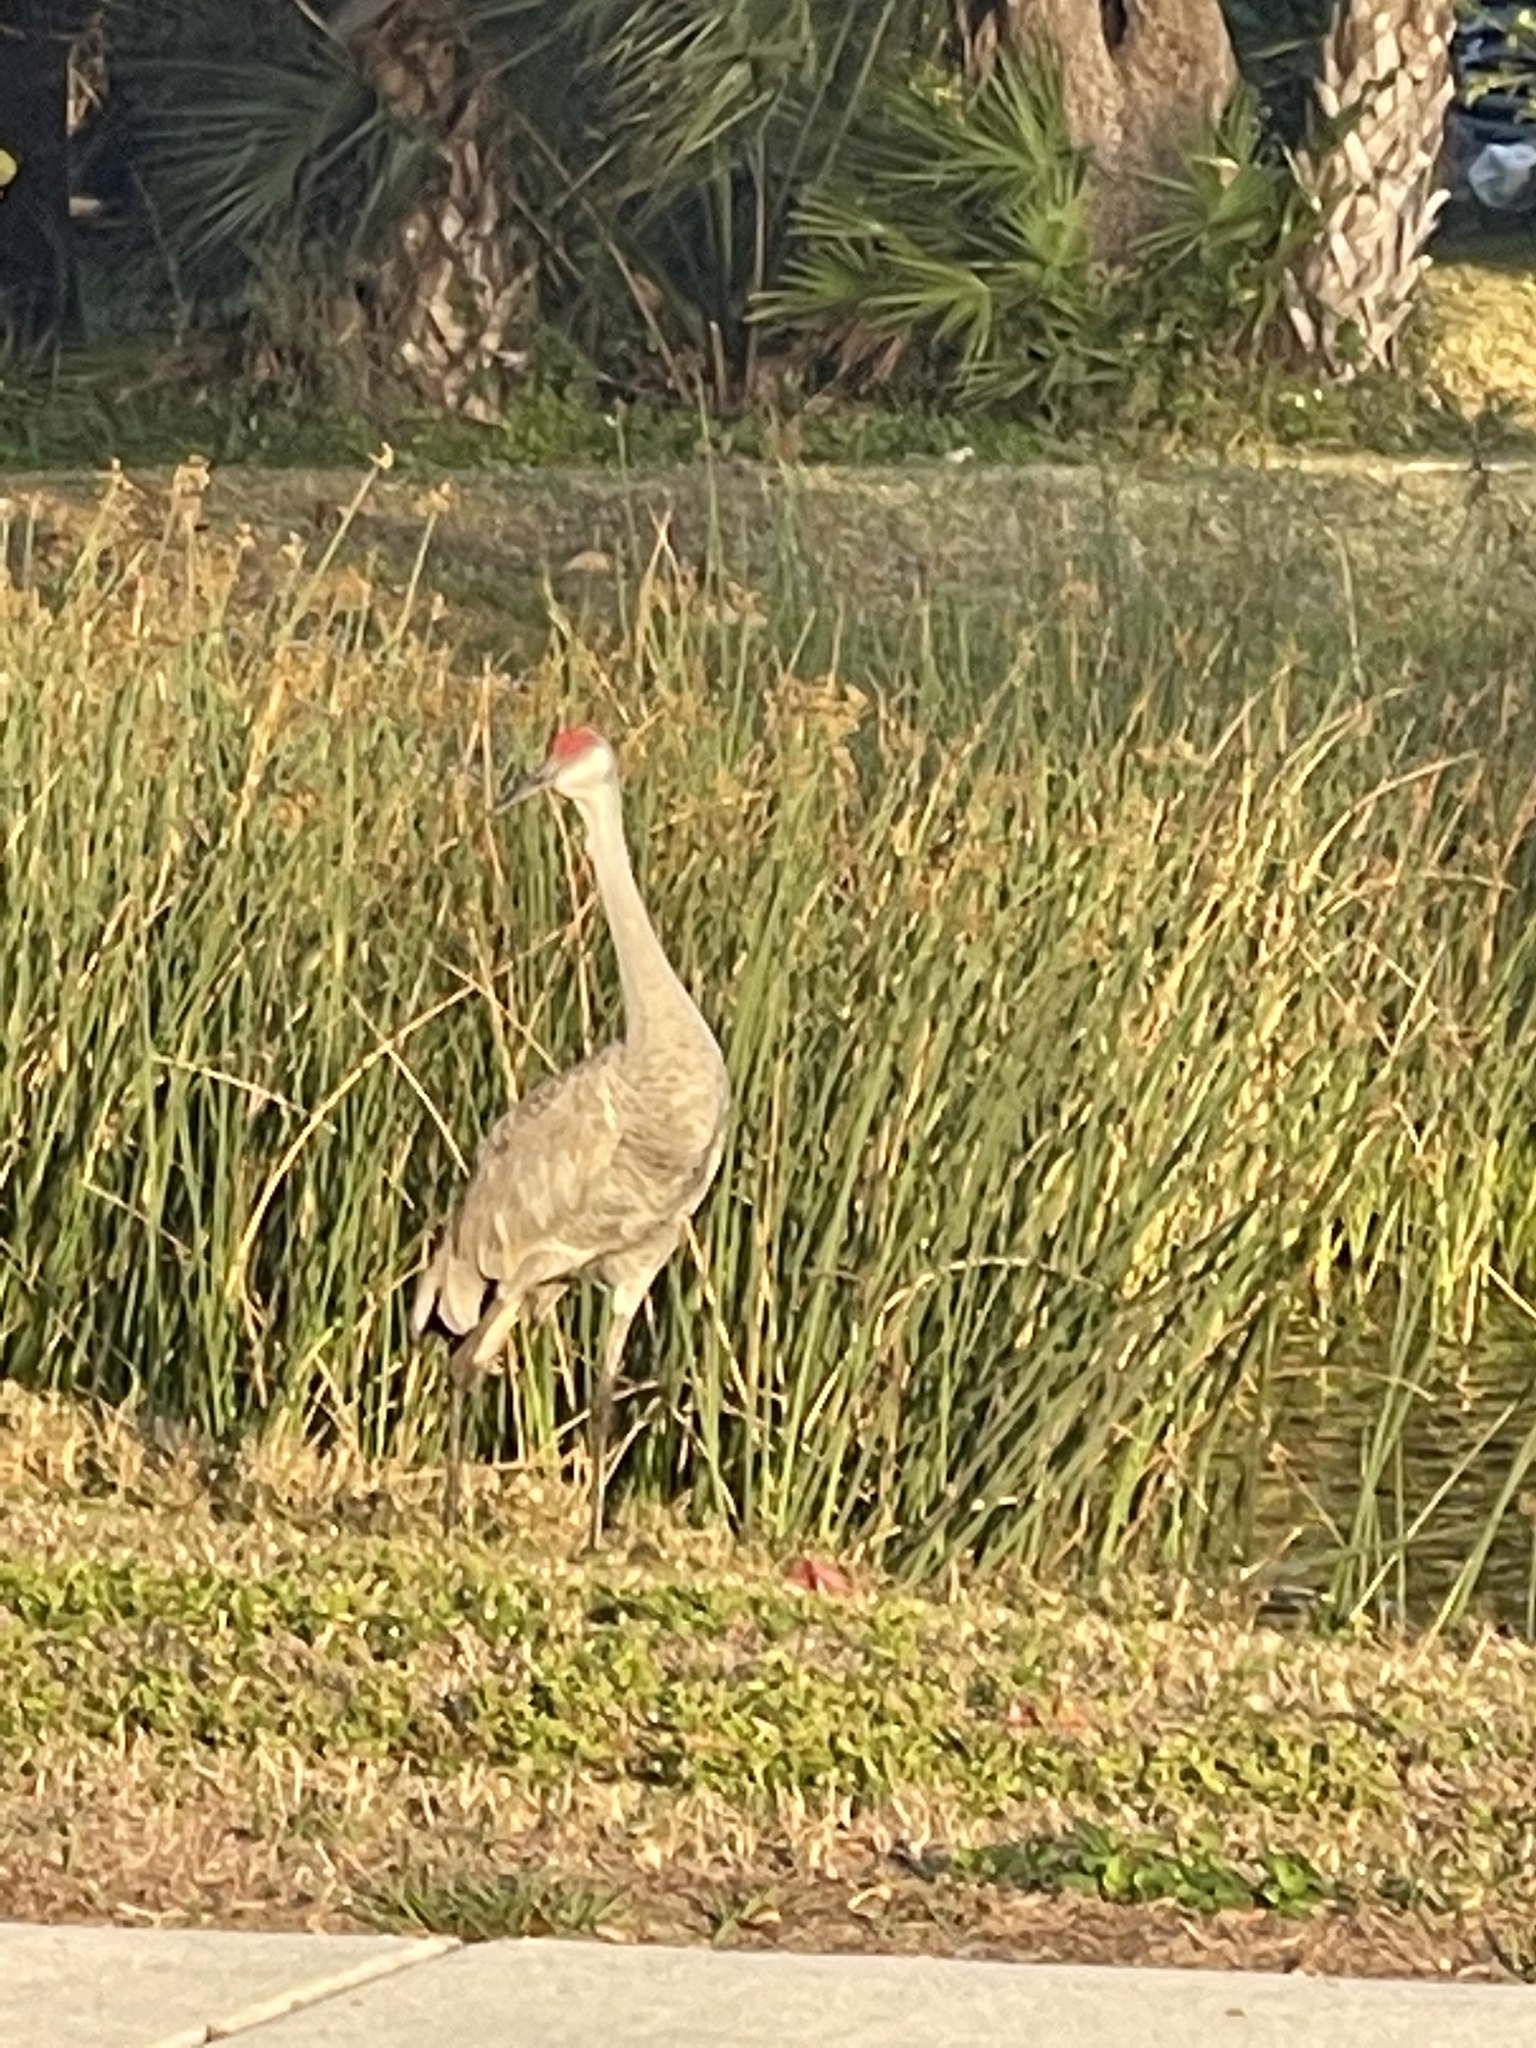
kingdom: Animalia
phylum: Chordata
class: Aves
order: Gruiformes
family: Gruidae
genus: Grus
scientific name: Grus canadensis
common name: Sandhill crane
